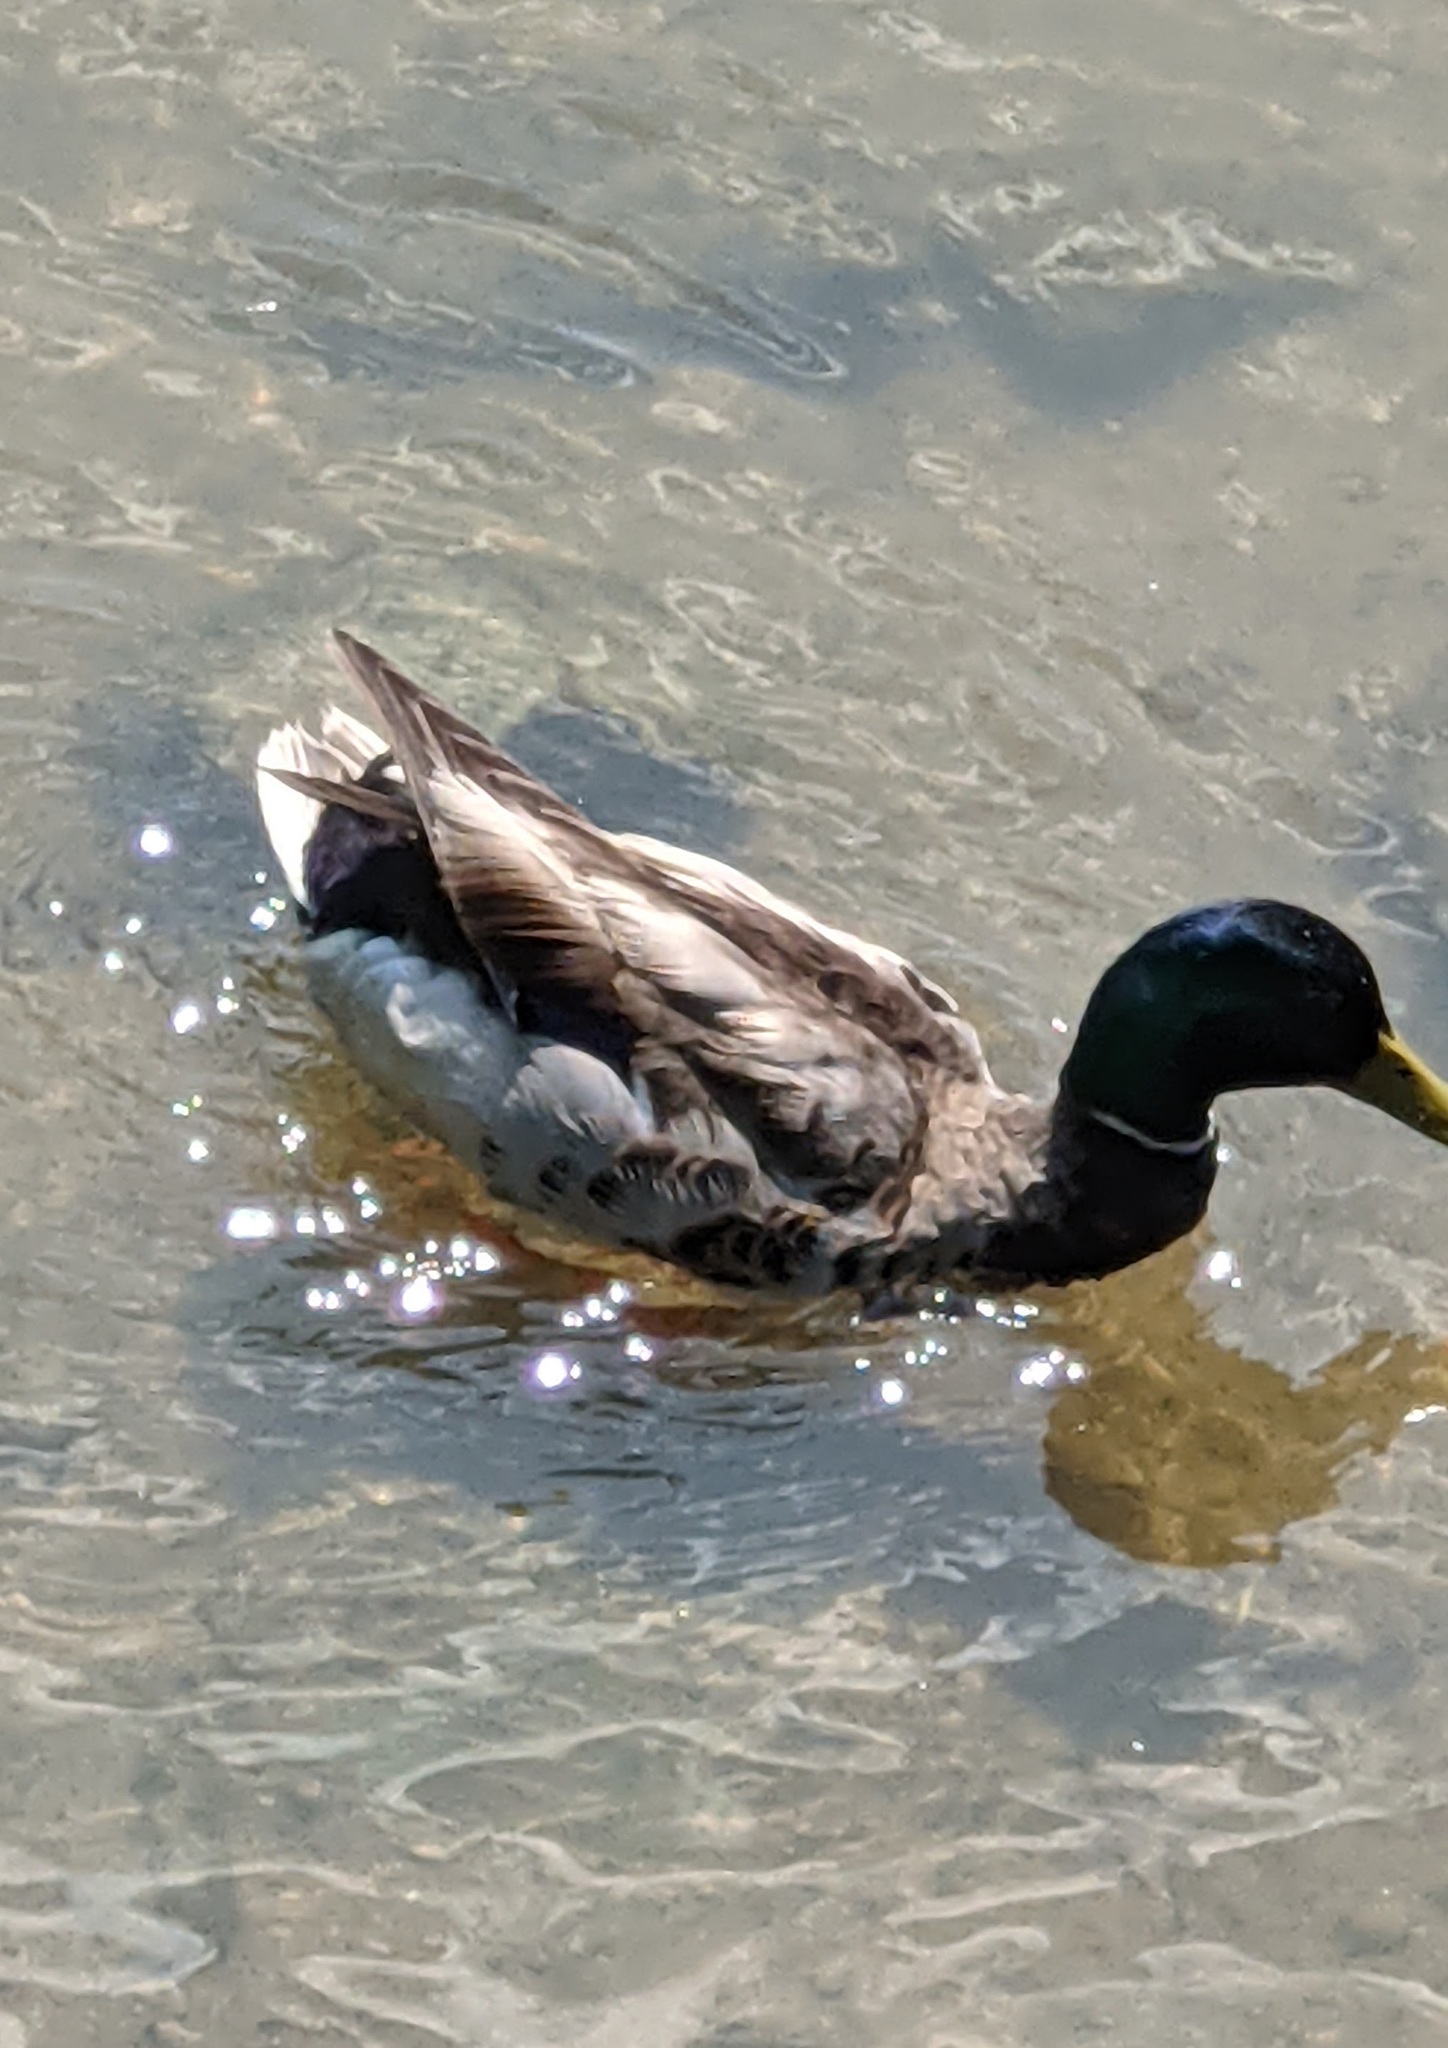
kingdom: Animalia
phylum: Chordata
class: Aves
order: Anseriformes
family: Anatidae
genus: Anas
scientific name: Anas platyrhynchos
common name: Mallard
